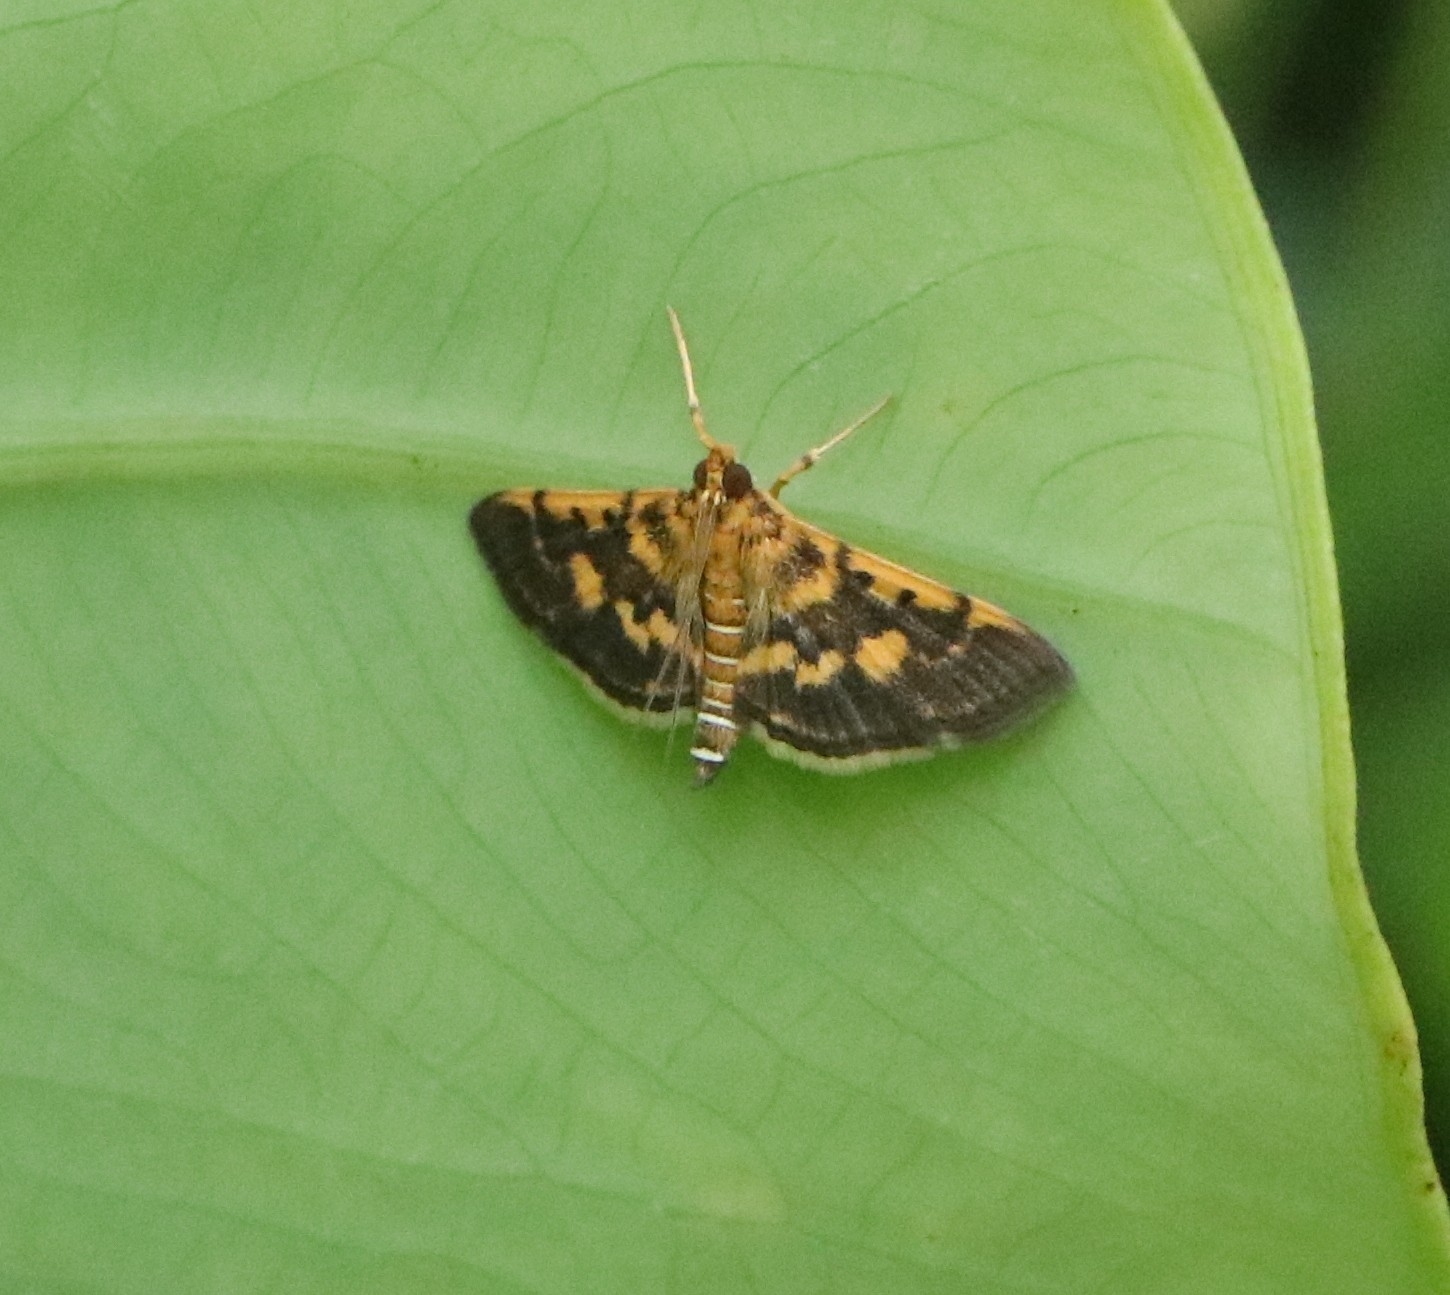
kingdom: Animalia
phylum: Arthropoda
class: Insecta
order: Lepidoptera
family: Crambidae
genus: Omiodes
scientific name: Omiodes diemenalis
